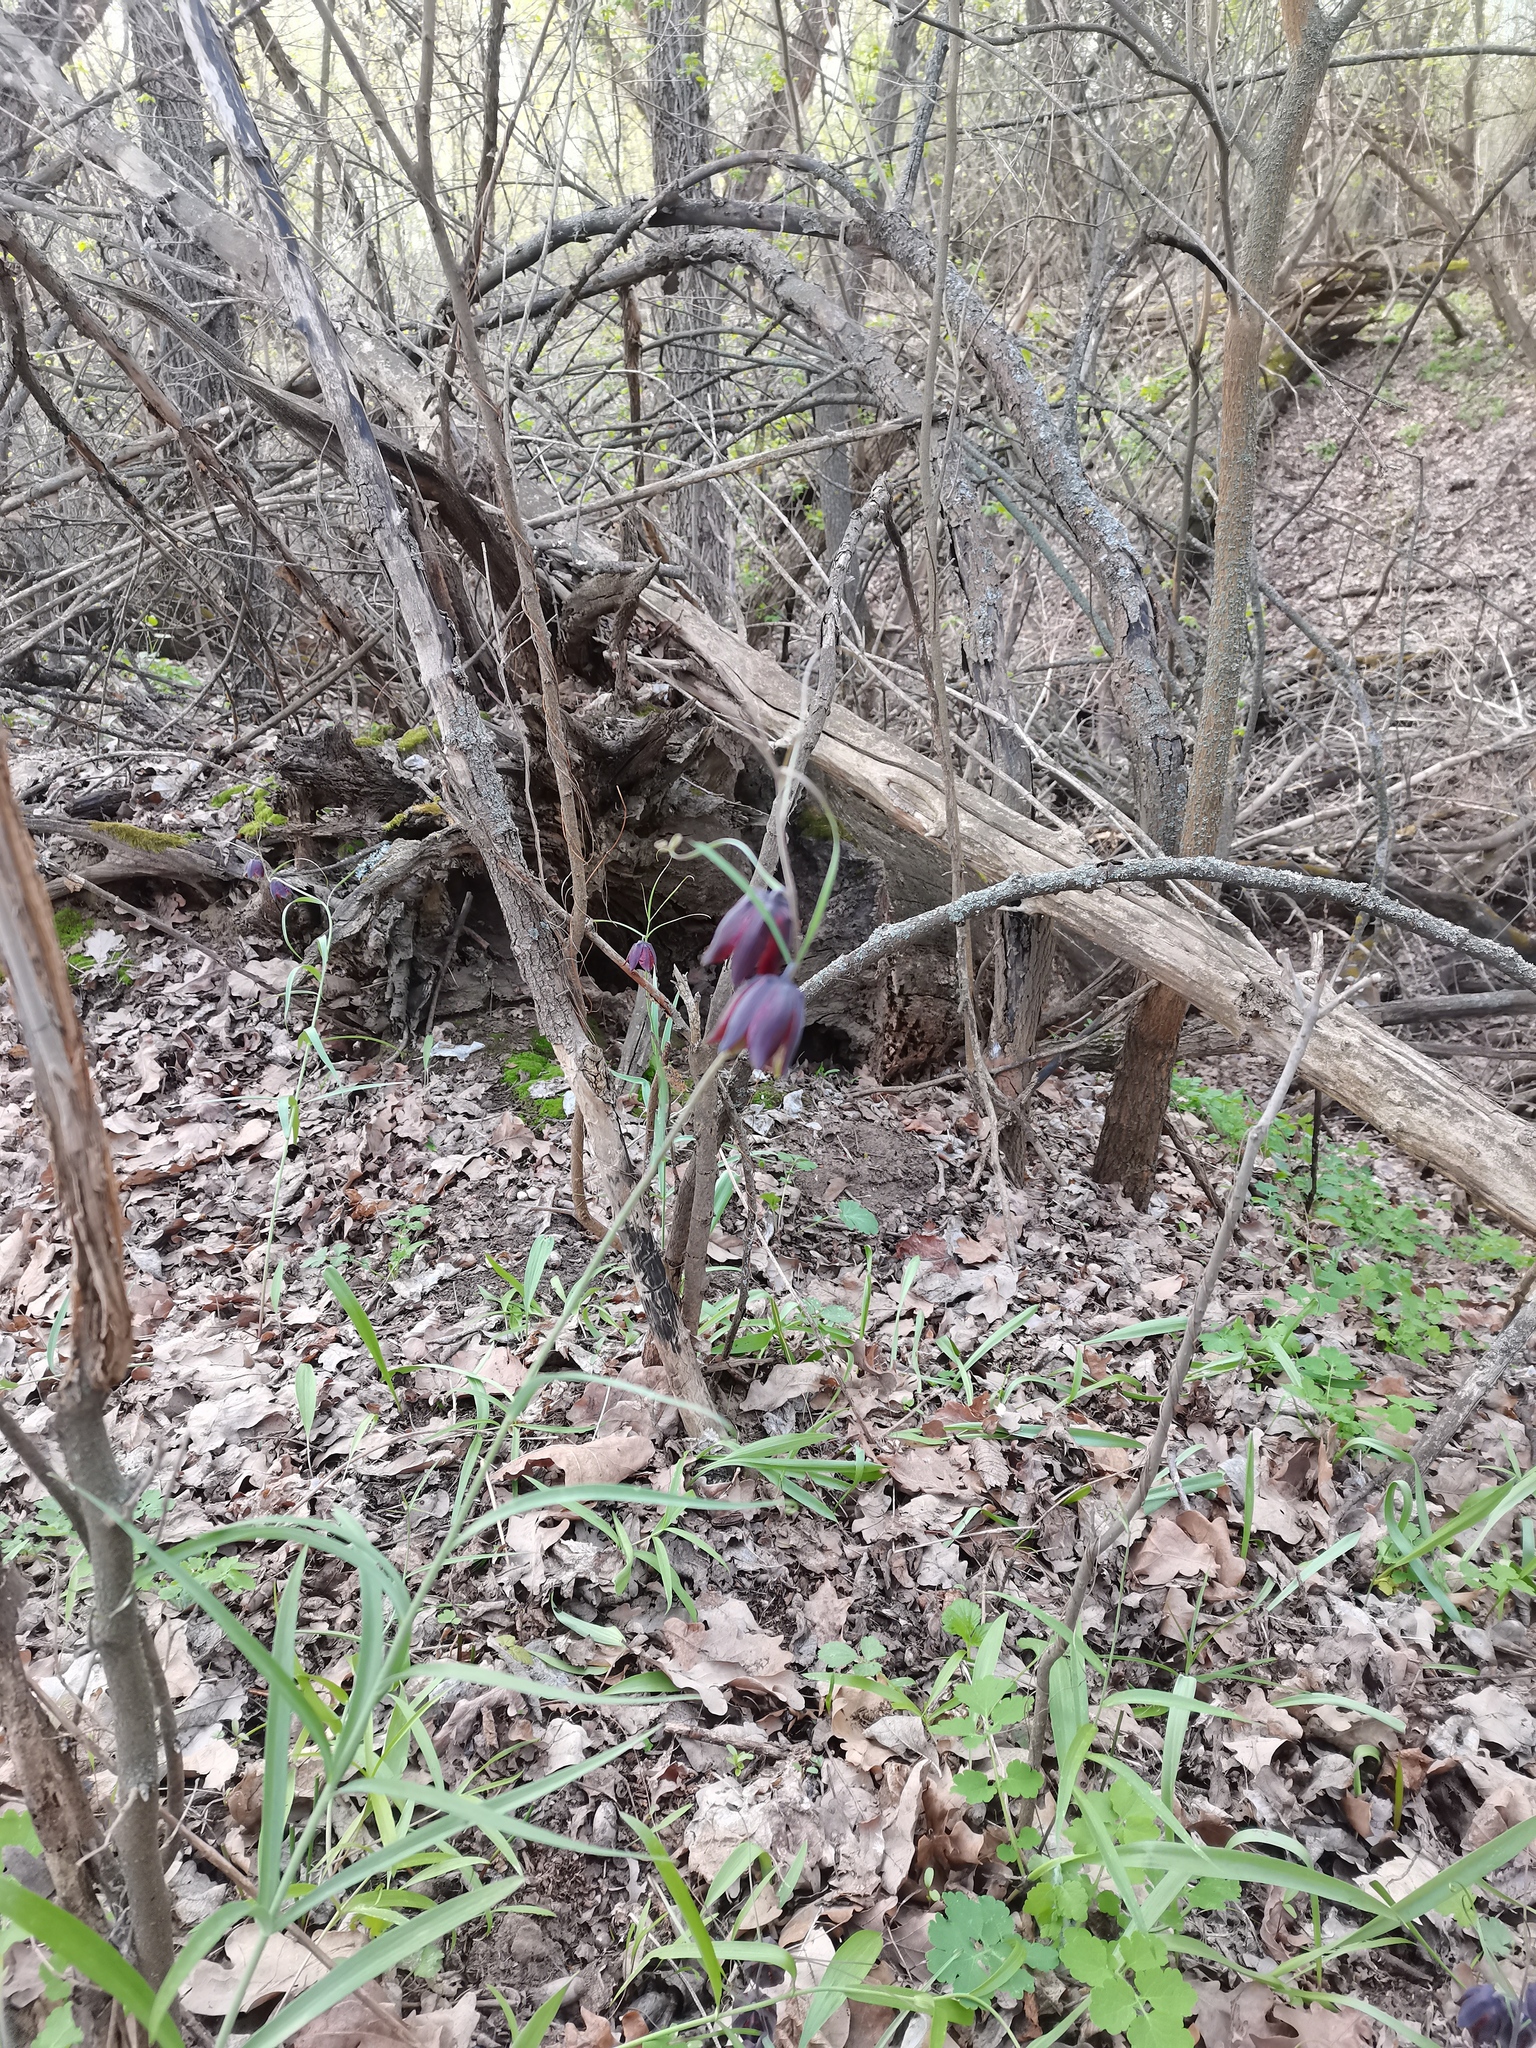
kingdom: Plantae
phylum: Tracheophyta
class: Liliopsida
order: Liliales
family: Liliaceae
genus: Fritillaria
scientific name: Fritillaria ruthenica
